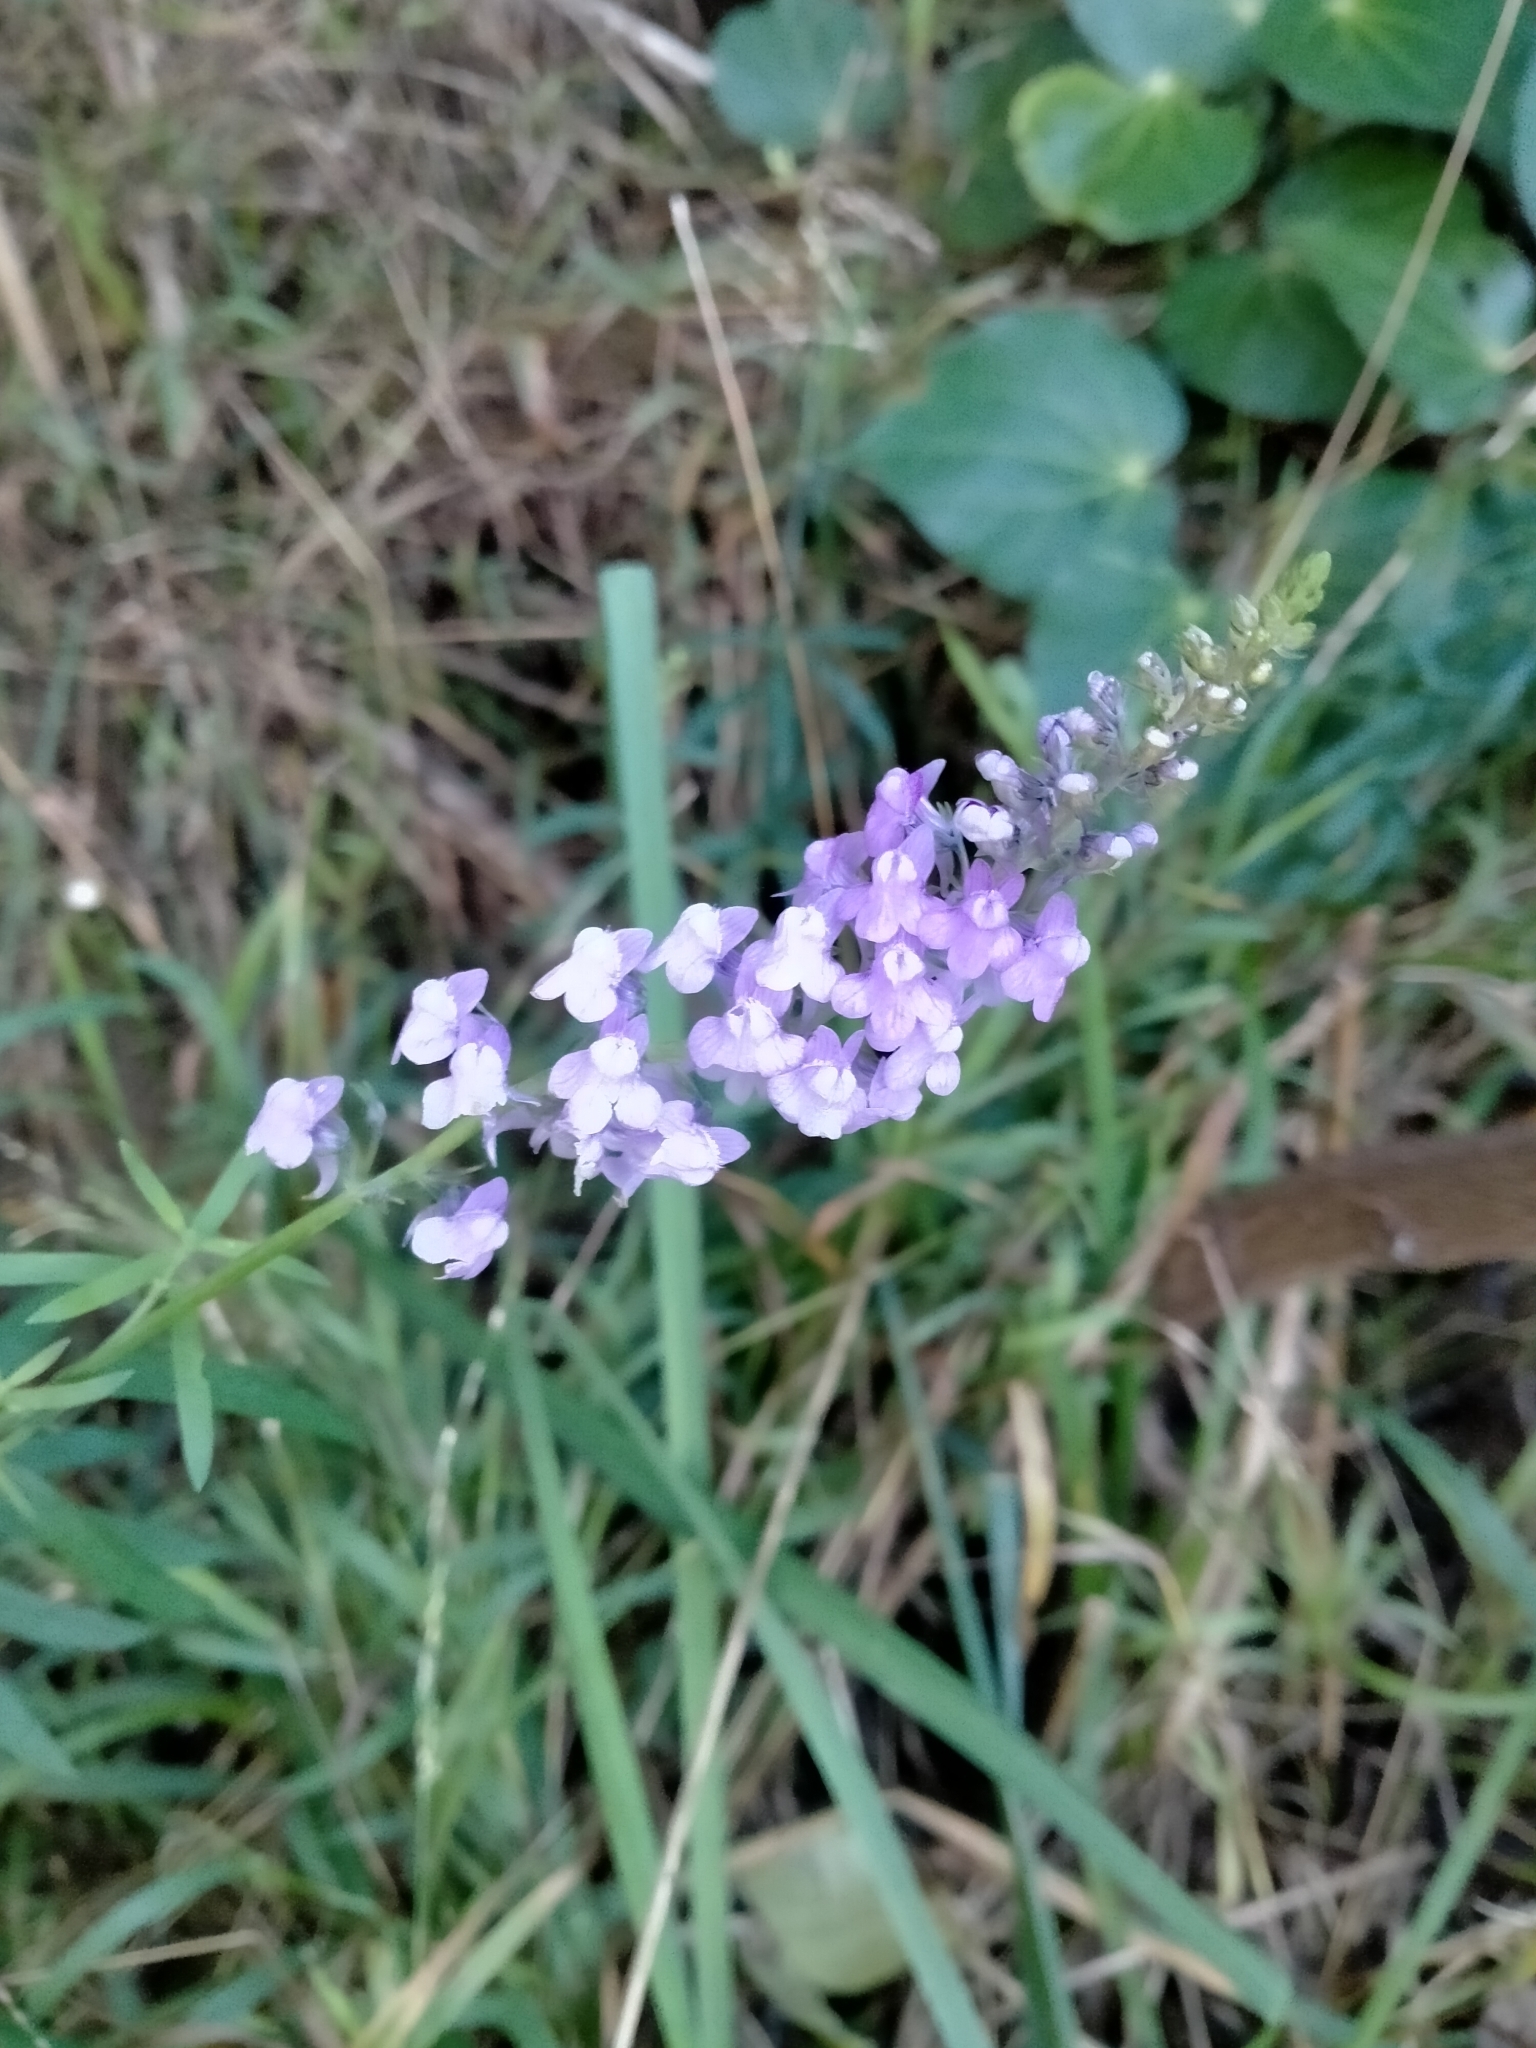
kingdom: Plantae
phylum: Tracheophyta
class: Magnoliopsida
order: Lamiales
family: Plantaginaceae
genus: Linaria
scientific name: Linaria purpurea
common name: Purple toadflax
